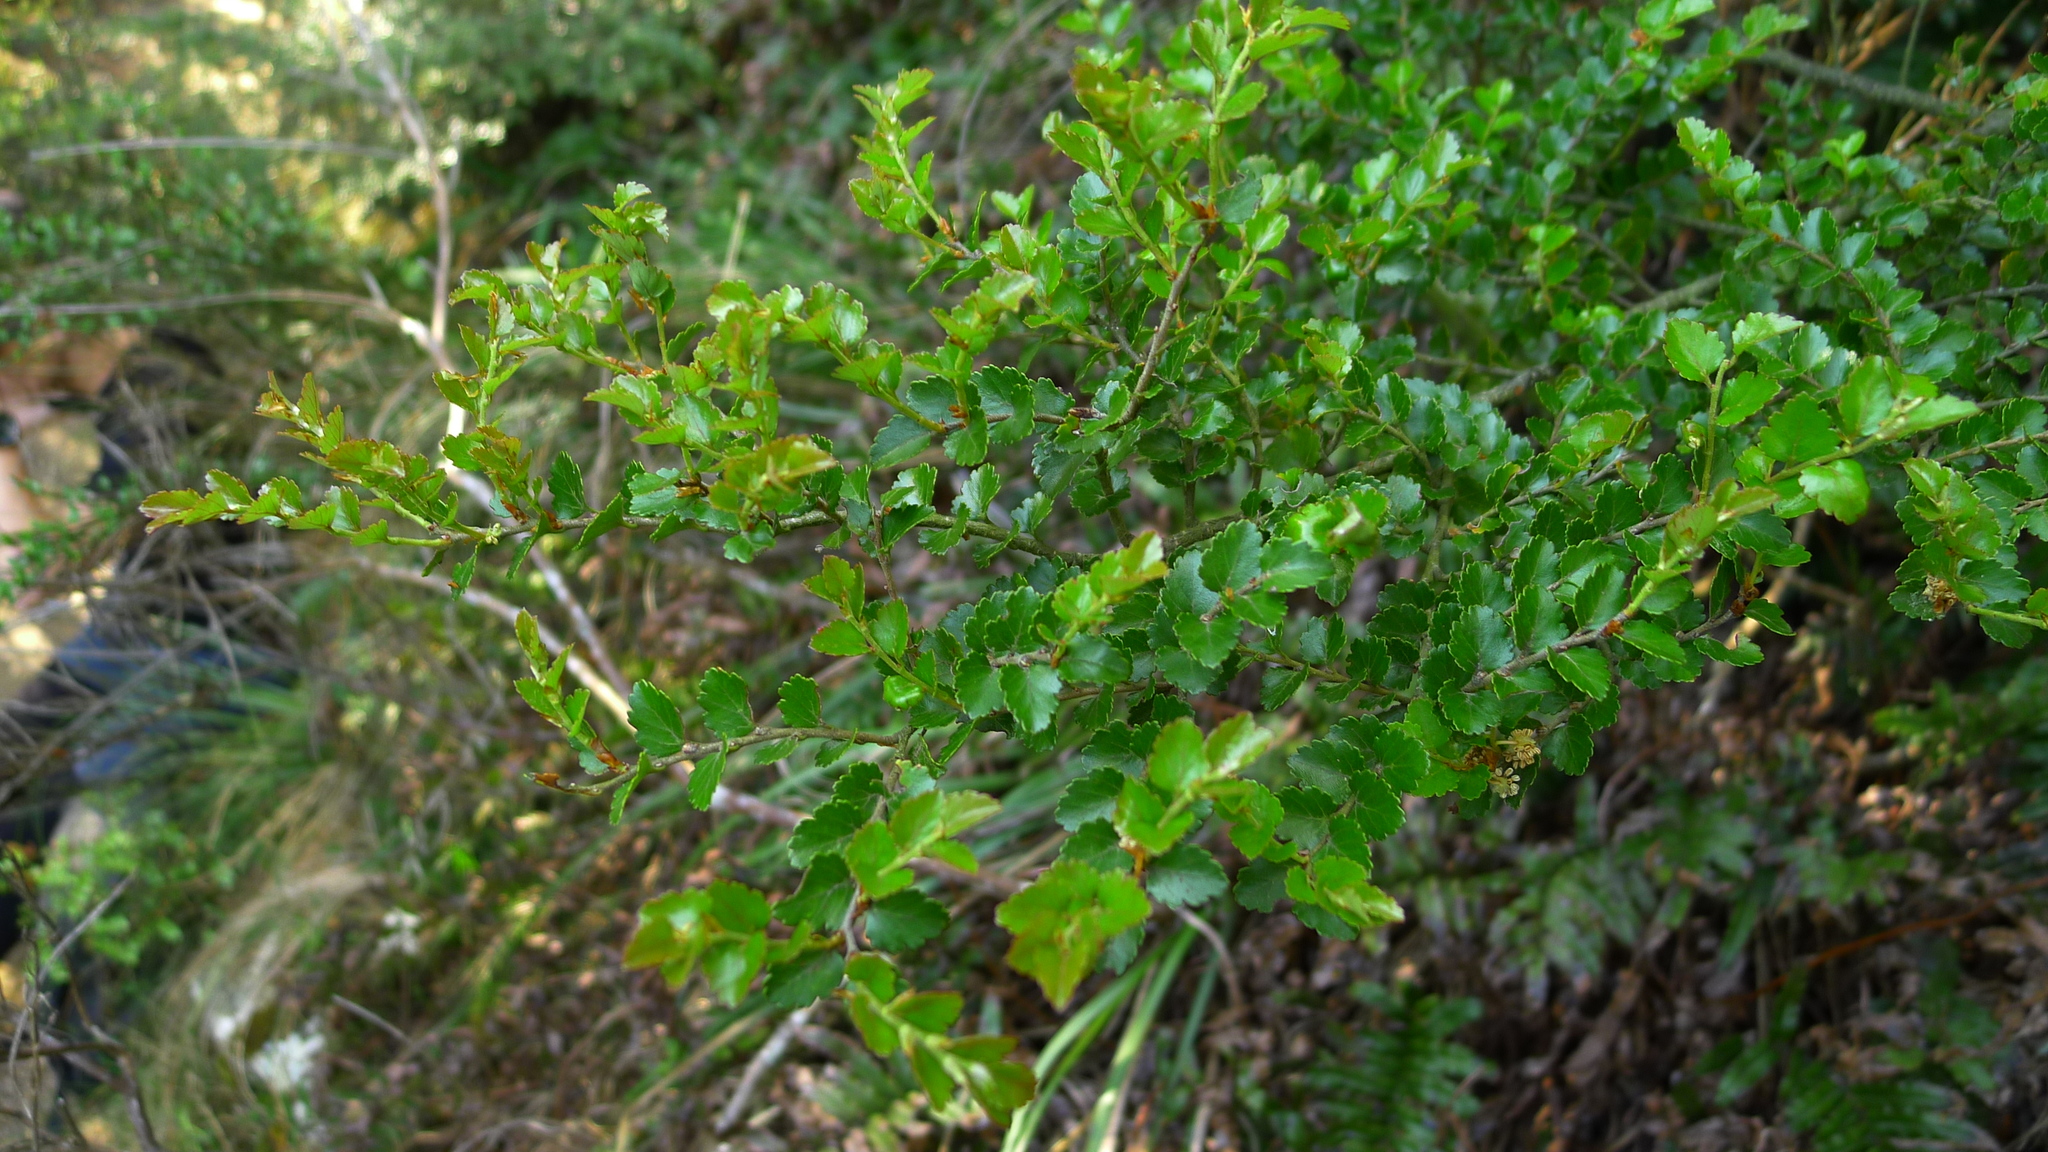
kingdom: Plantae
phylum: Tracheophyta
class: Magnoliopsida
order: Fagales
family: Nothofagaceae
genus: Nothofagus
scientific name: Nothofagus menziesii
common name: Silver beech
